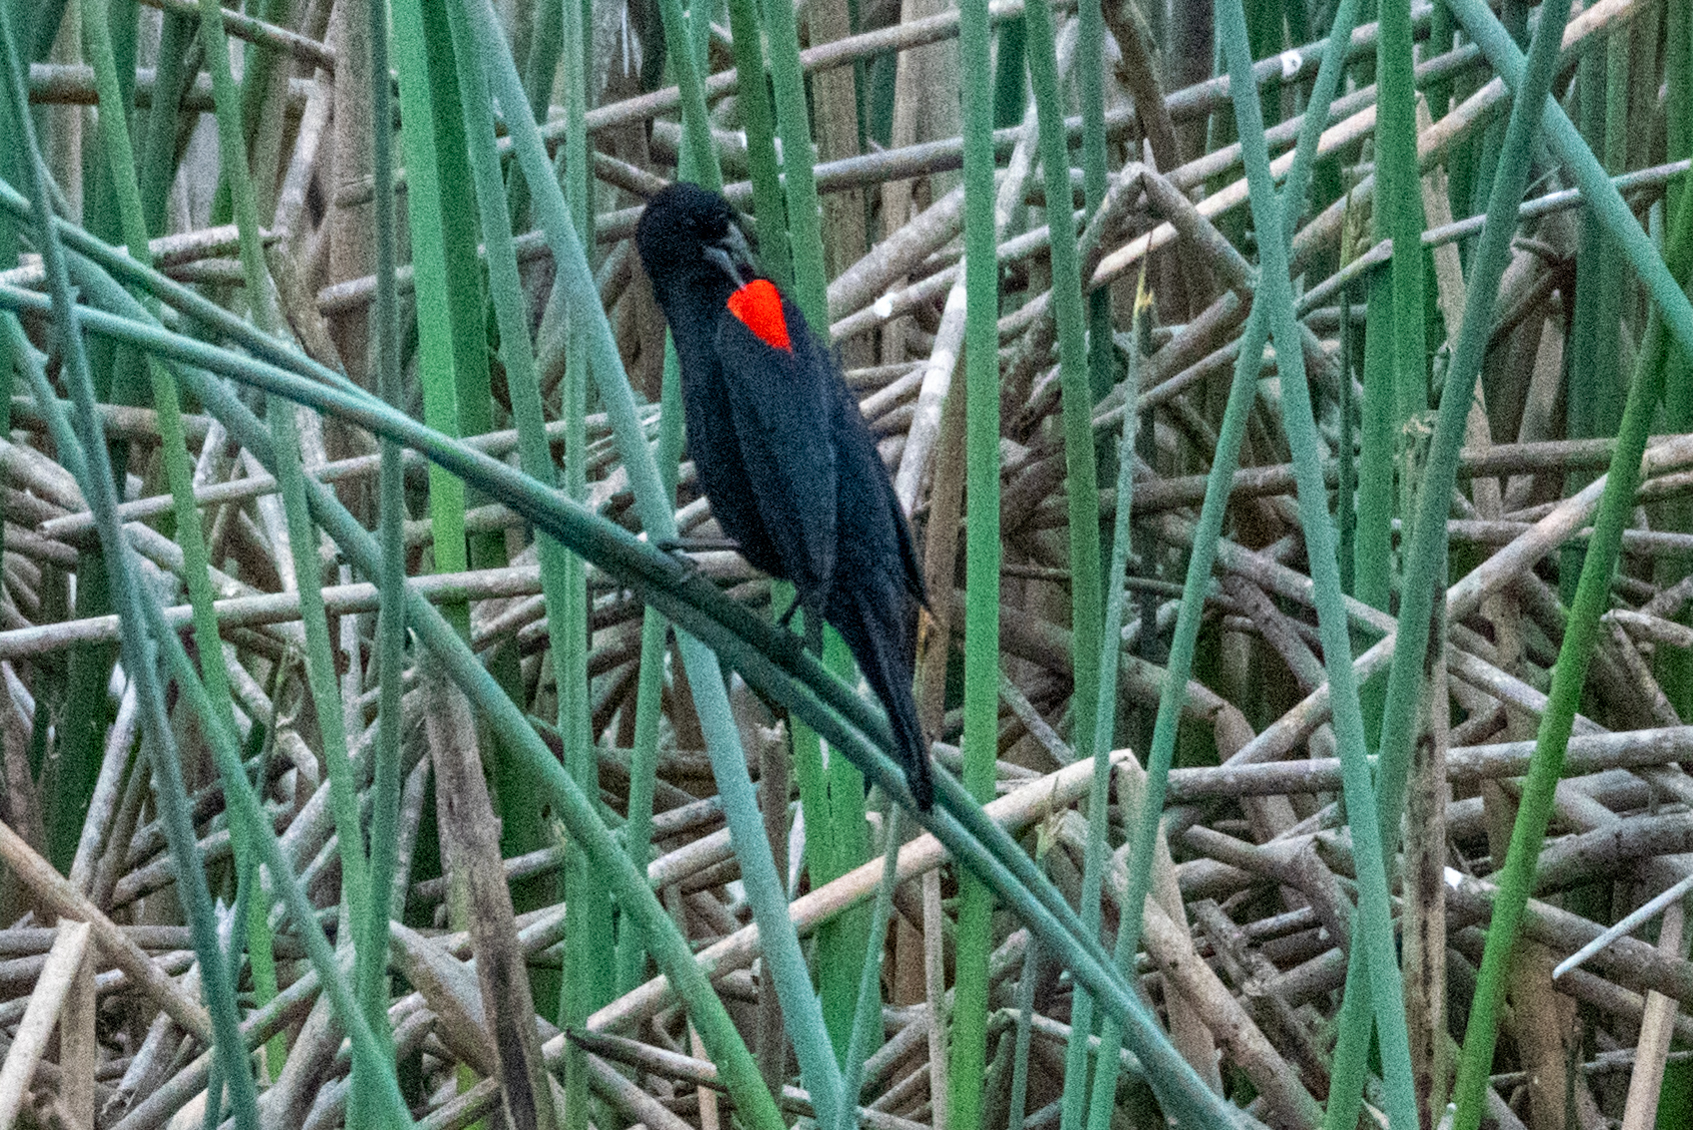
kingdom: Animalia
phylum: Chordata
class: Aves
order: Passeriformes
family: Icteridae
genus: Agelaius
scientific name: Agelaius phoeniceus
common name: Red-winged blackbird
